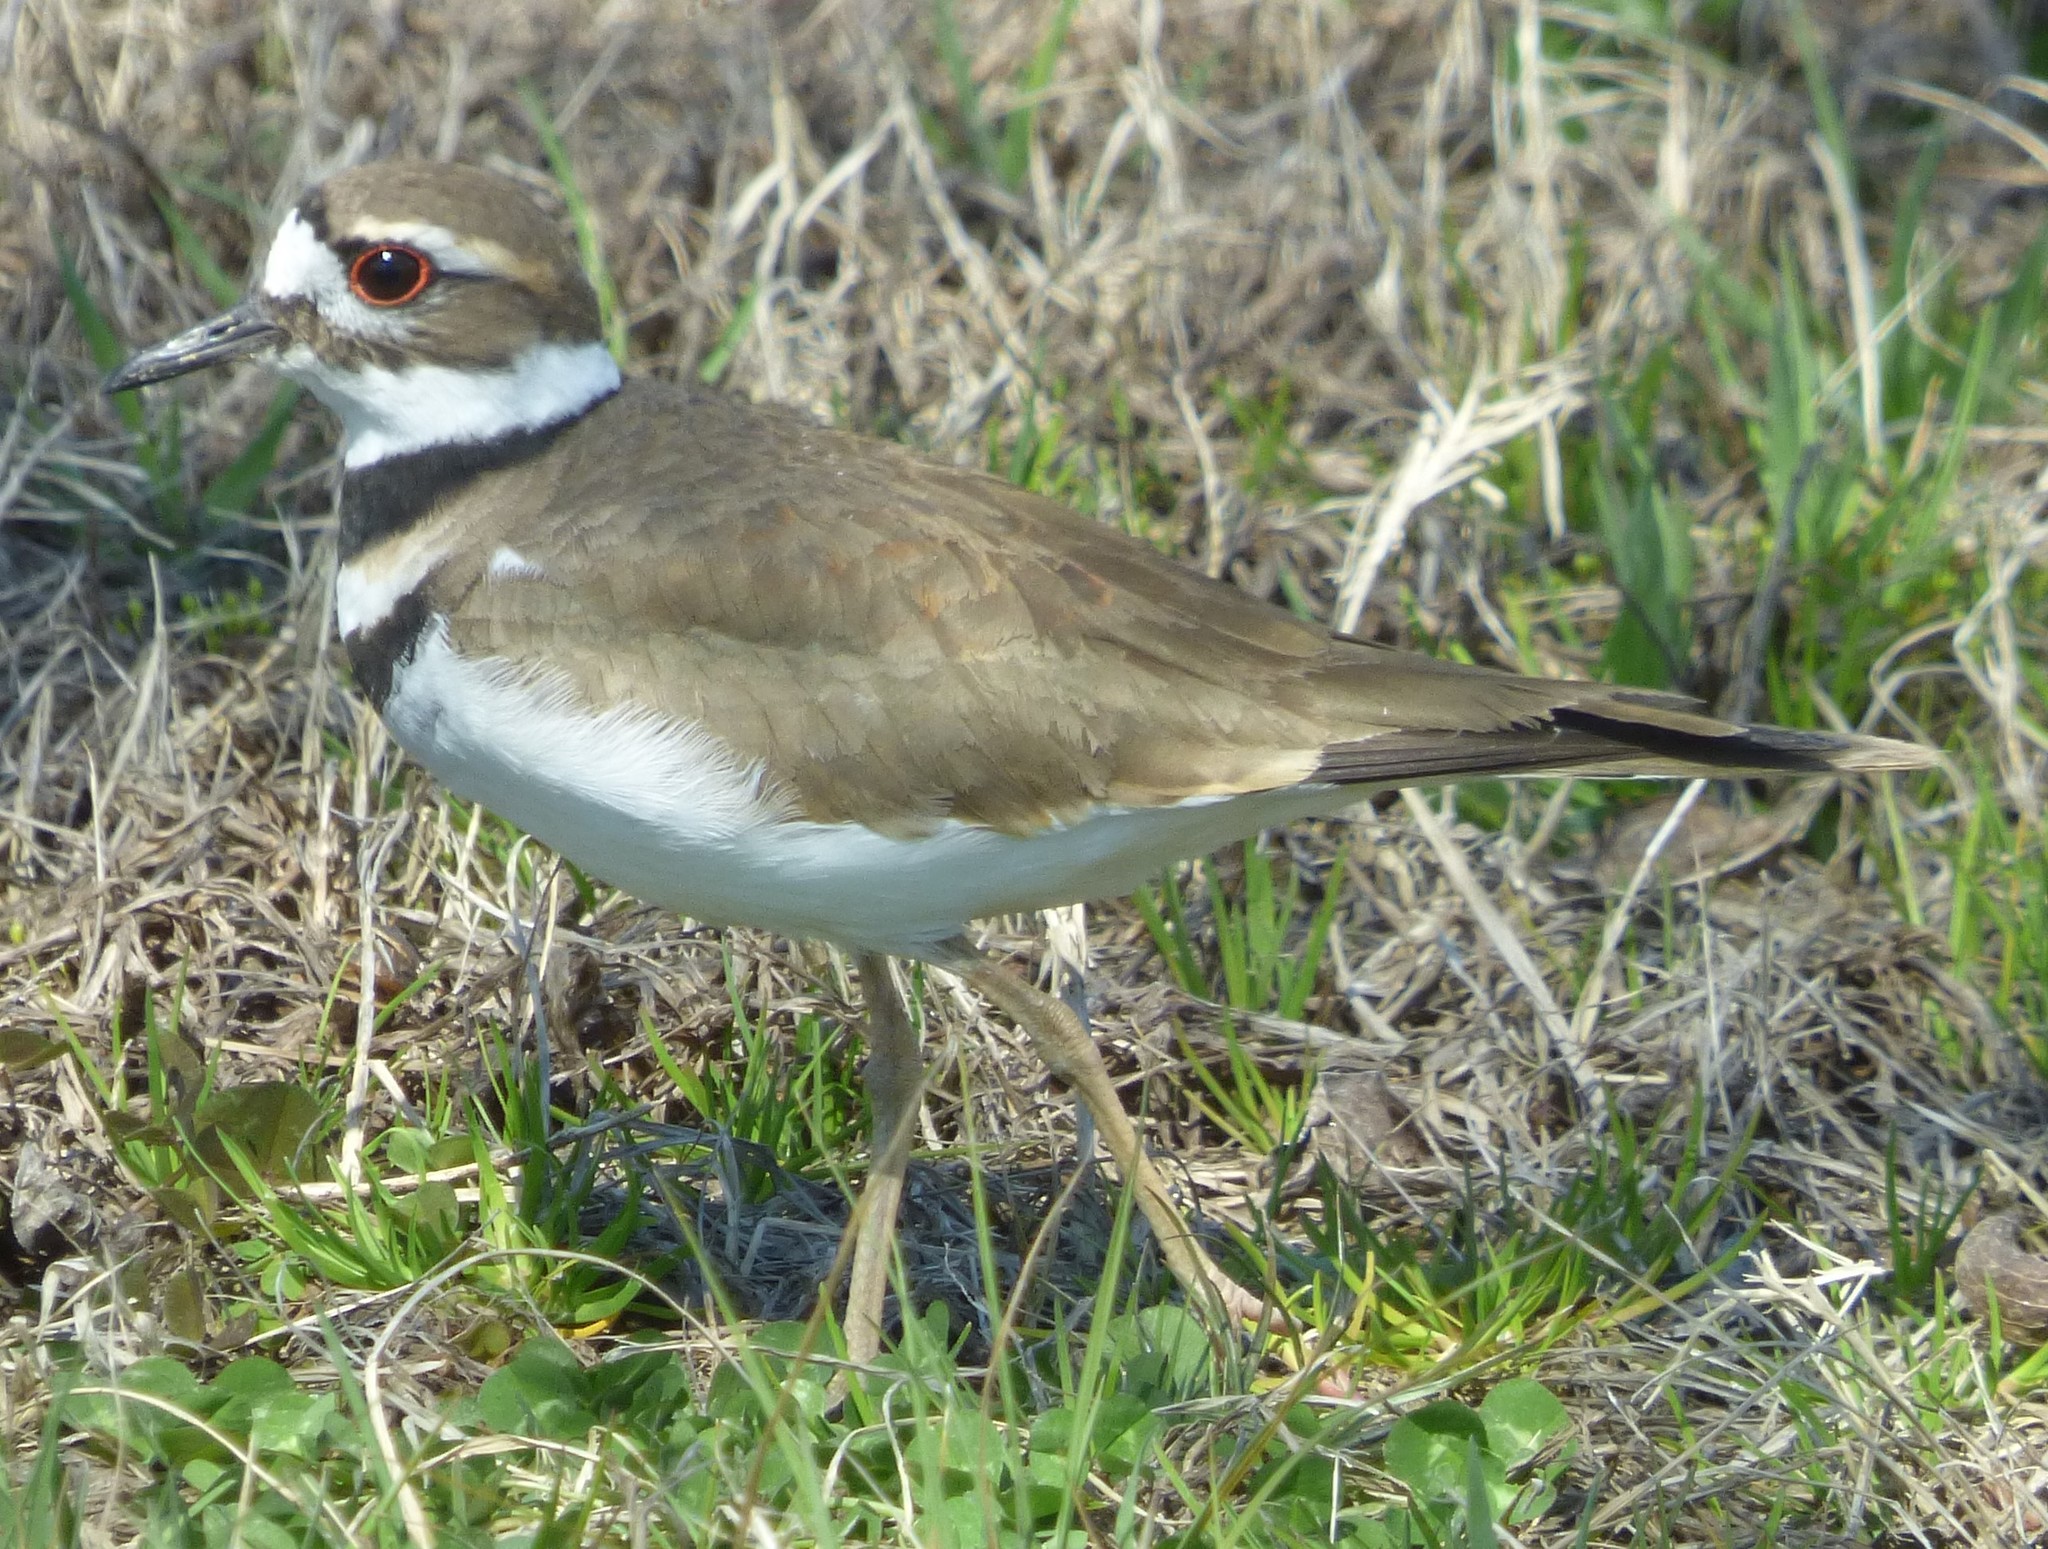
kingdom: Animalia
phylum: Chordata
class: Aves
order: Charadriiformes
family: Charadriidae
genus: Charadrius
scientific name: Charadrius vociferus
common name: Killdeer
